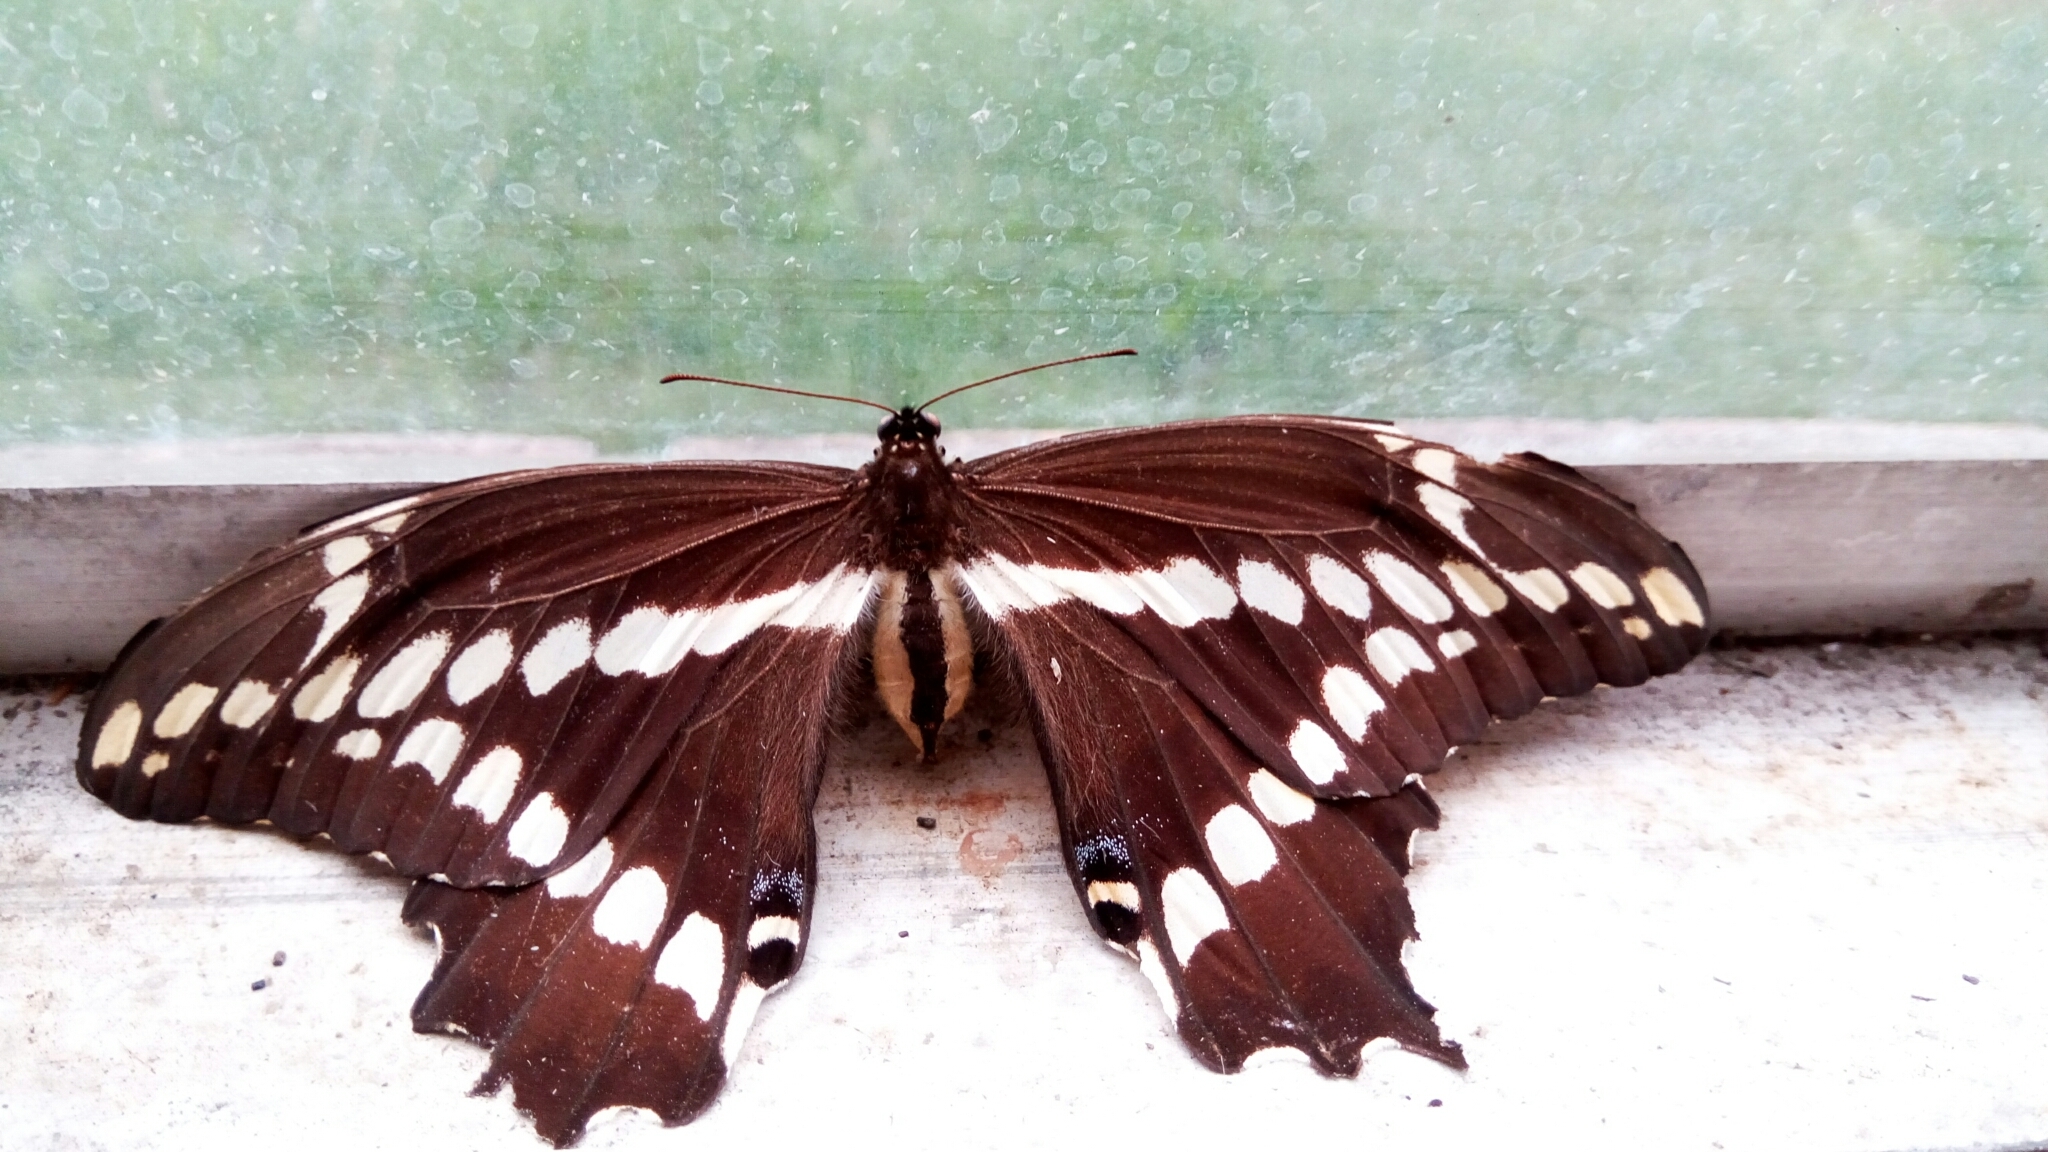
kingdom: Animalia
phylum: Arthropoda
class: Insecta
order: Lepidoptera
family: Papilionidae
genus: Papilio
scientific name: Papilio cresphontes
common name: Giant swallowtail
